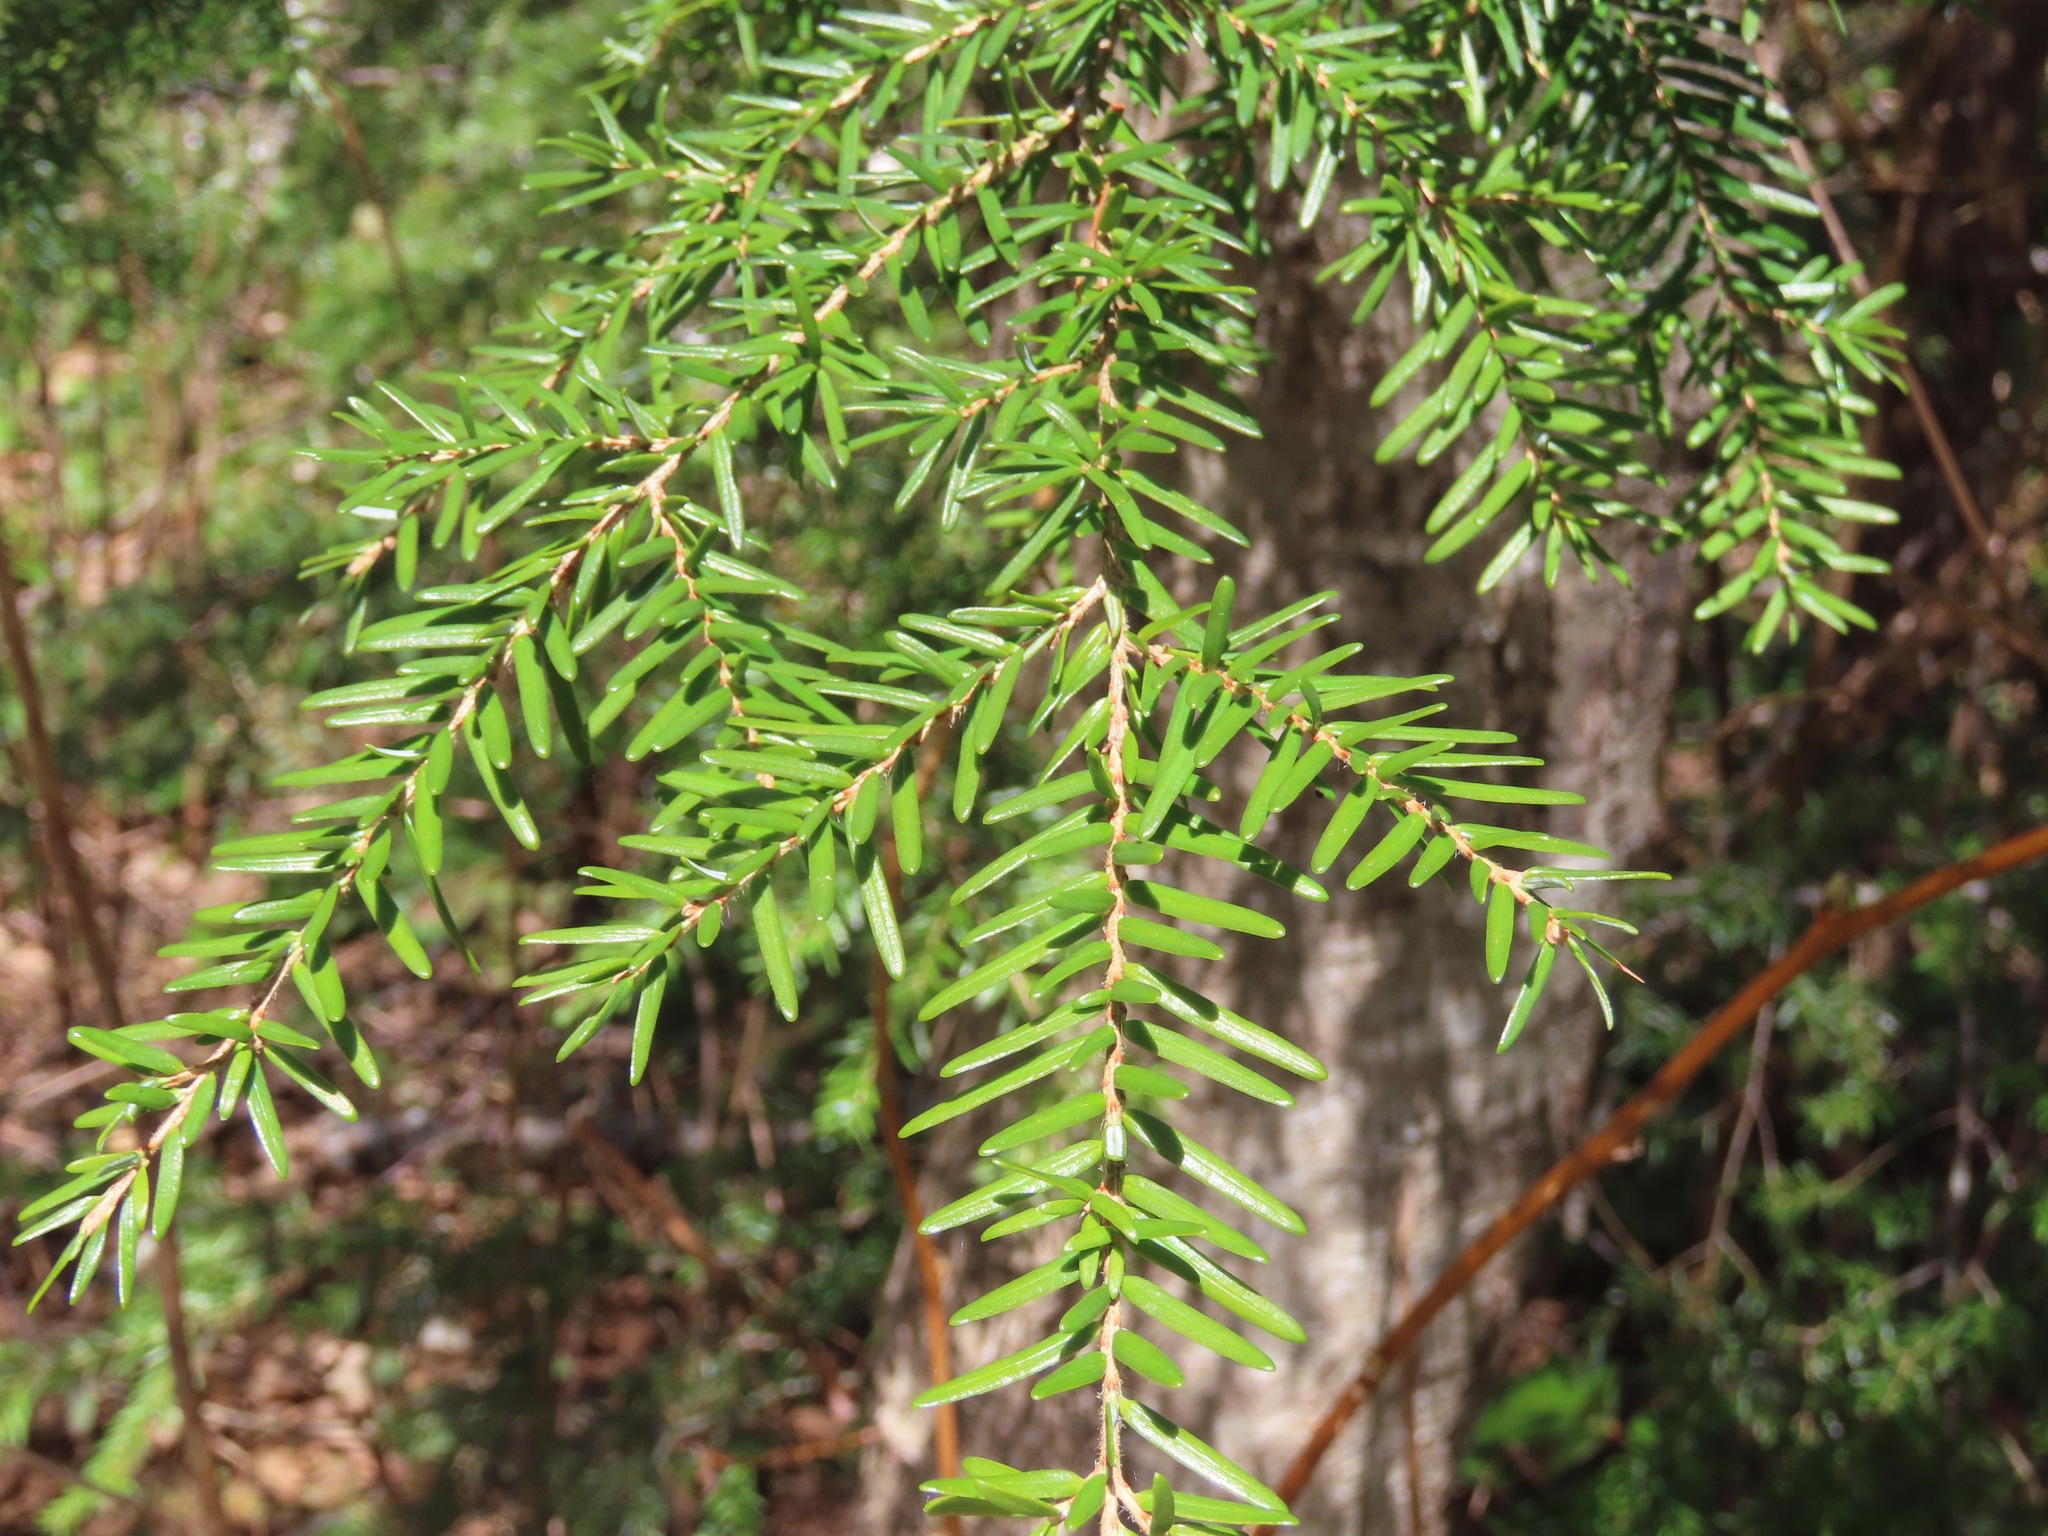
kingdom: Plantae
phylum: Tracheophyta
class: Pinopsida
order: Pinales
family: Pinaceae
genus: Tsuga
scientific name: Tsuga heterophylla
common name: Western hemlock
